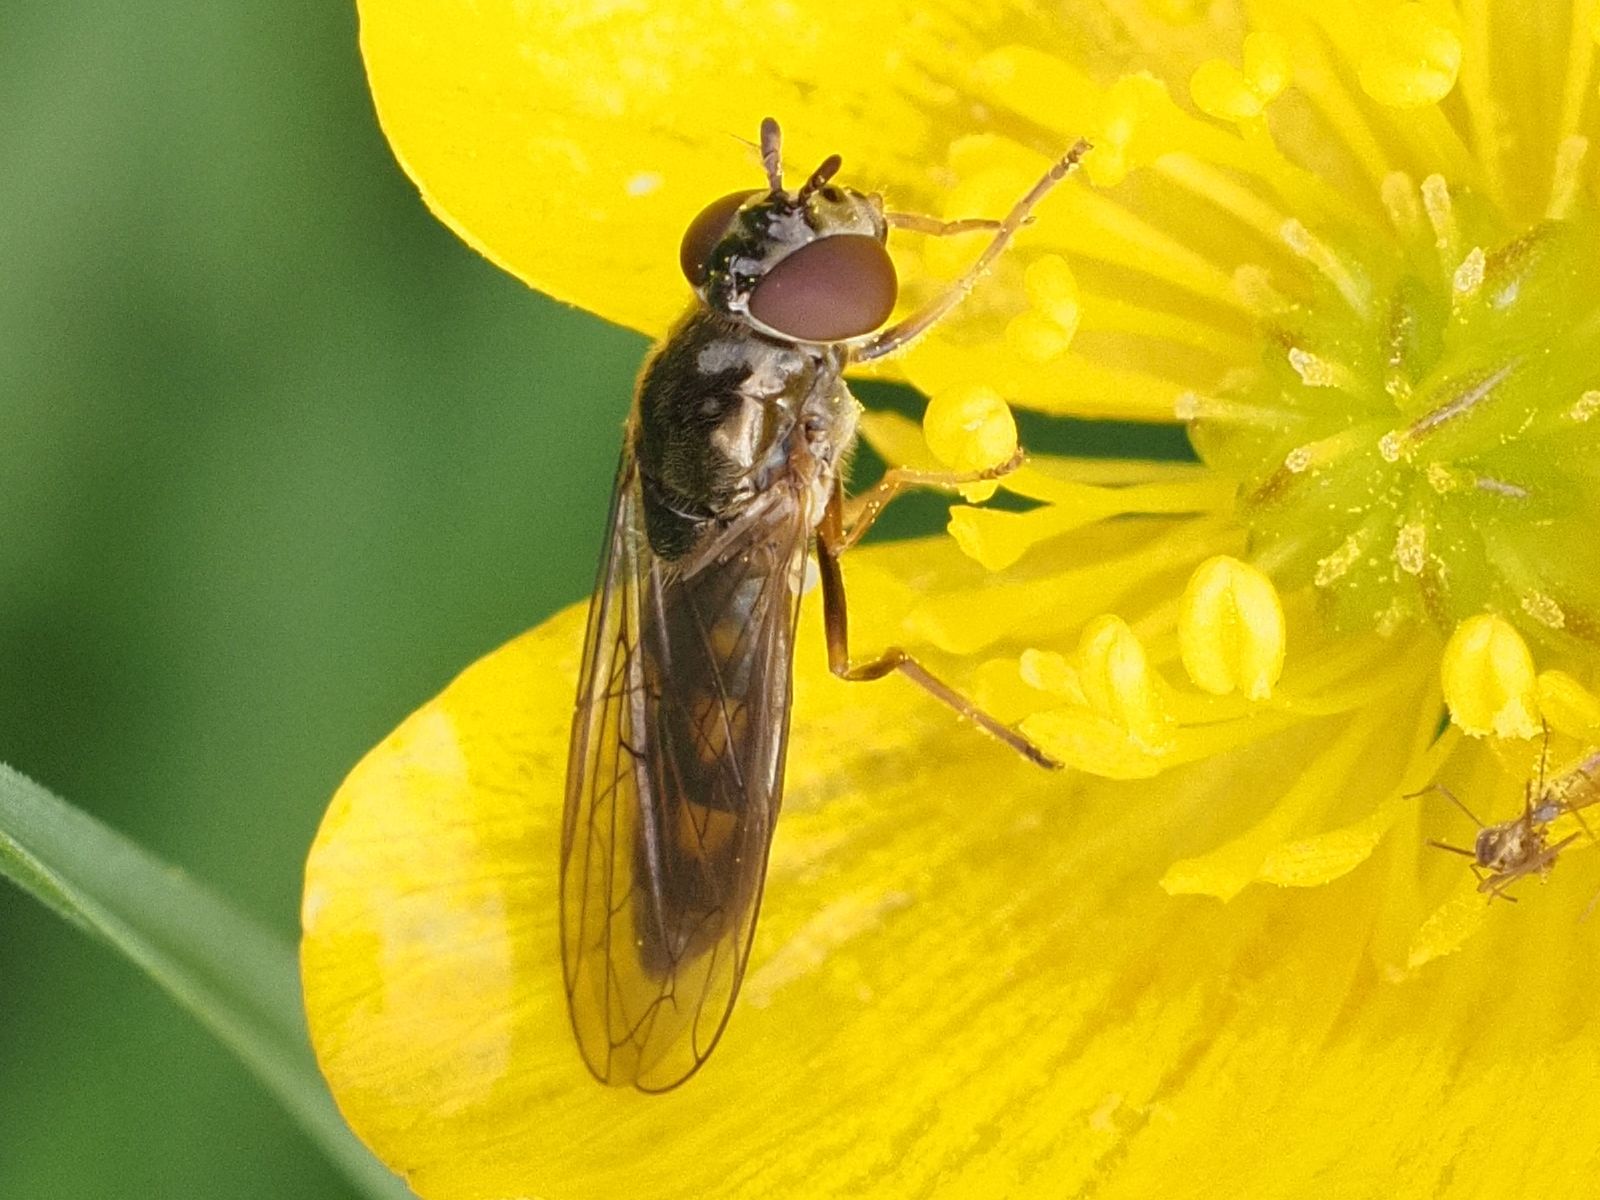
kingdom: Animalia
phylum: Arthropoda
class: Insecta
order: Diptera
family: Syrphidae
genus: Melanostoma
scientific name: Melanostoma scalare
